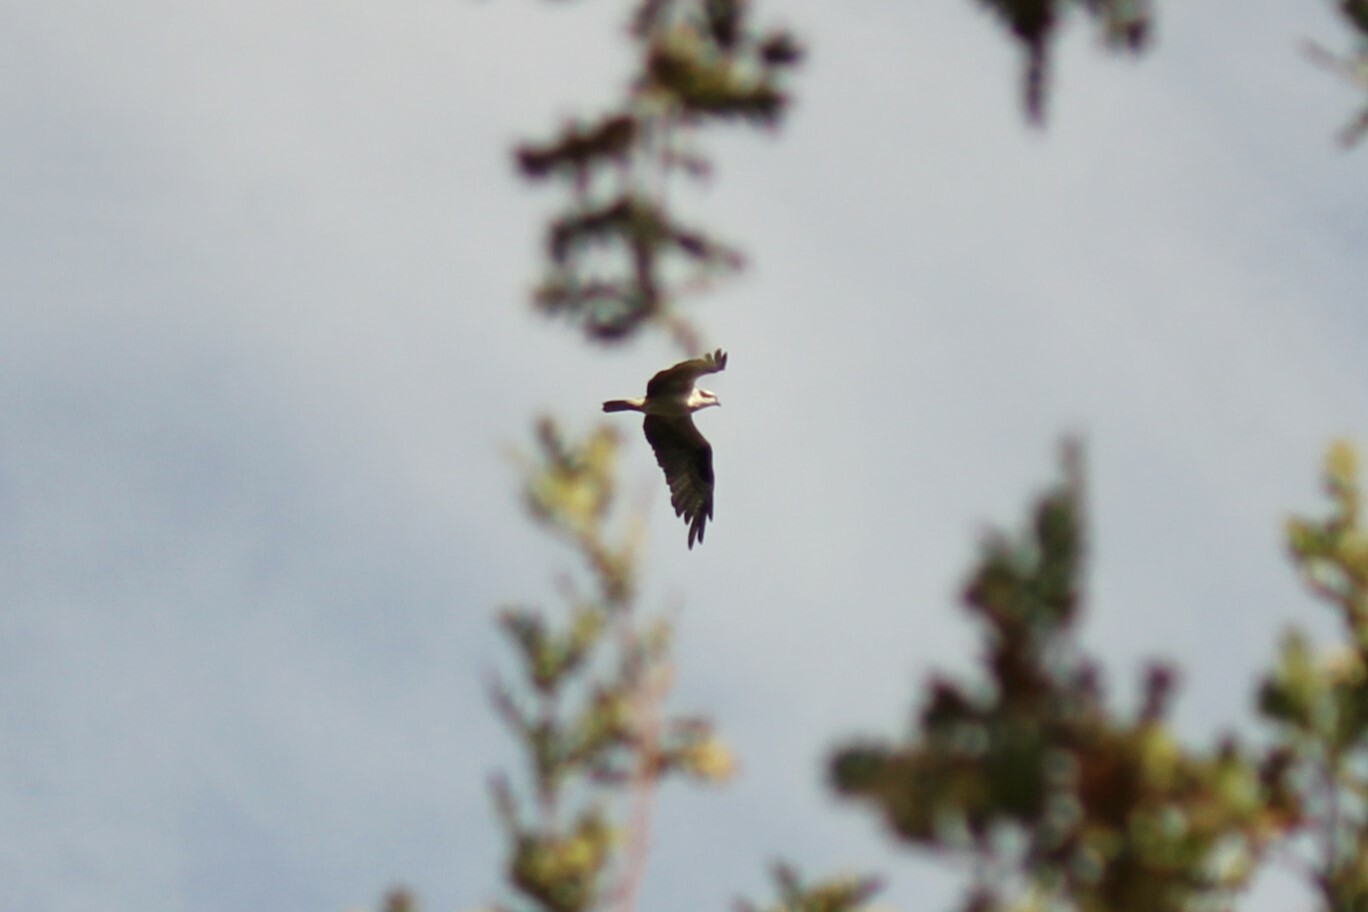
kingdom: Animalia
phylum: Chordata
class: Aves
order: Accipitriformes
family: Pandionidae
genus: Pandion
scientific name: Pandion haliaetus
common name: Osprey
